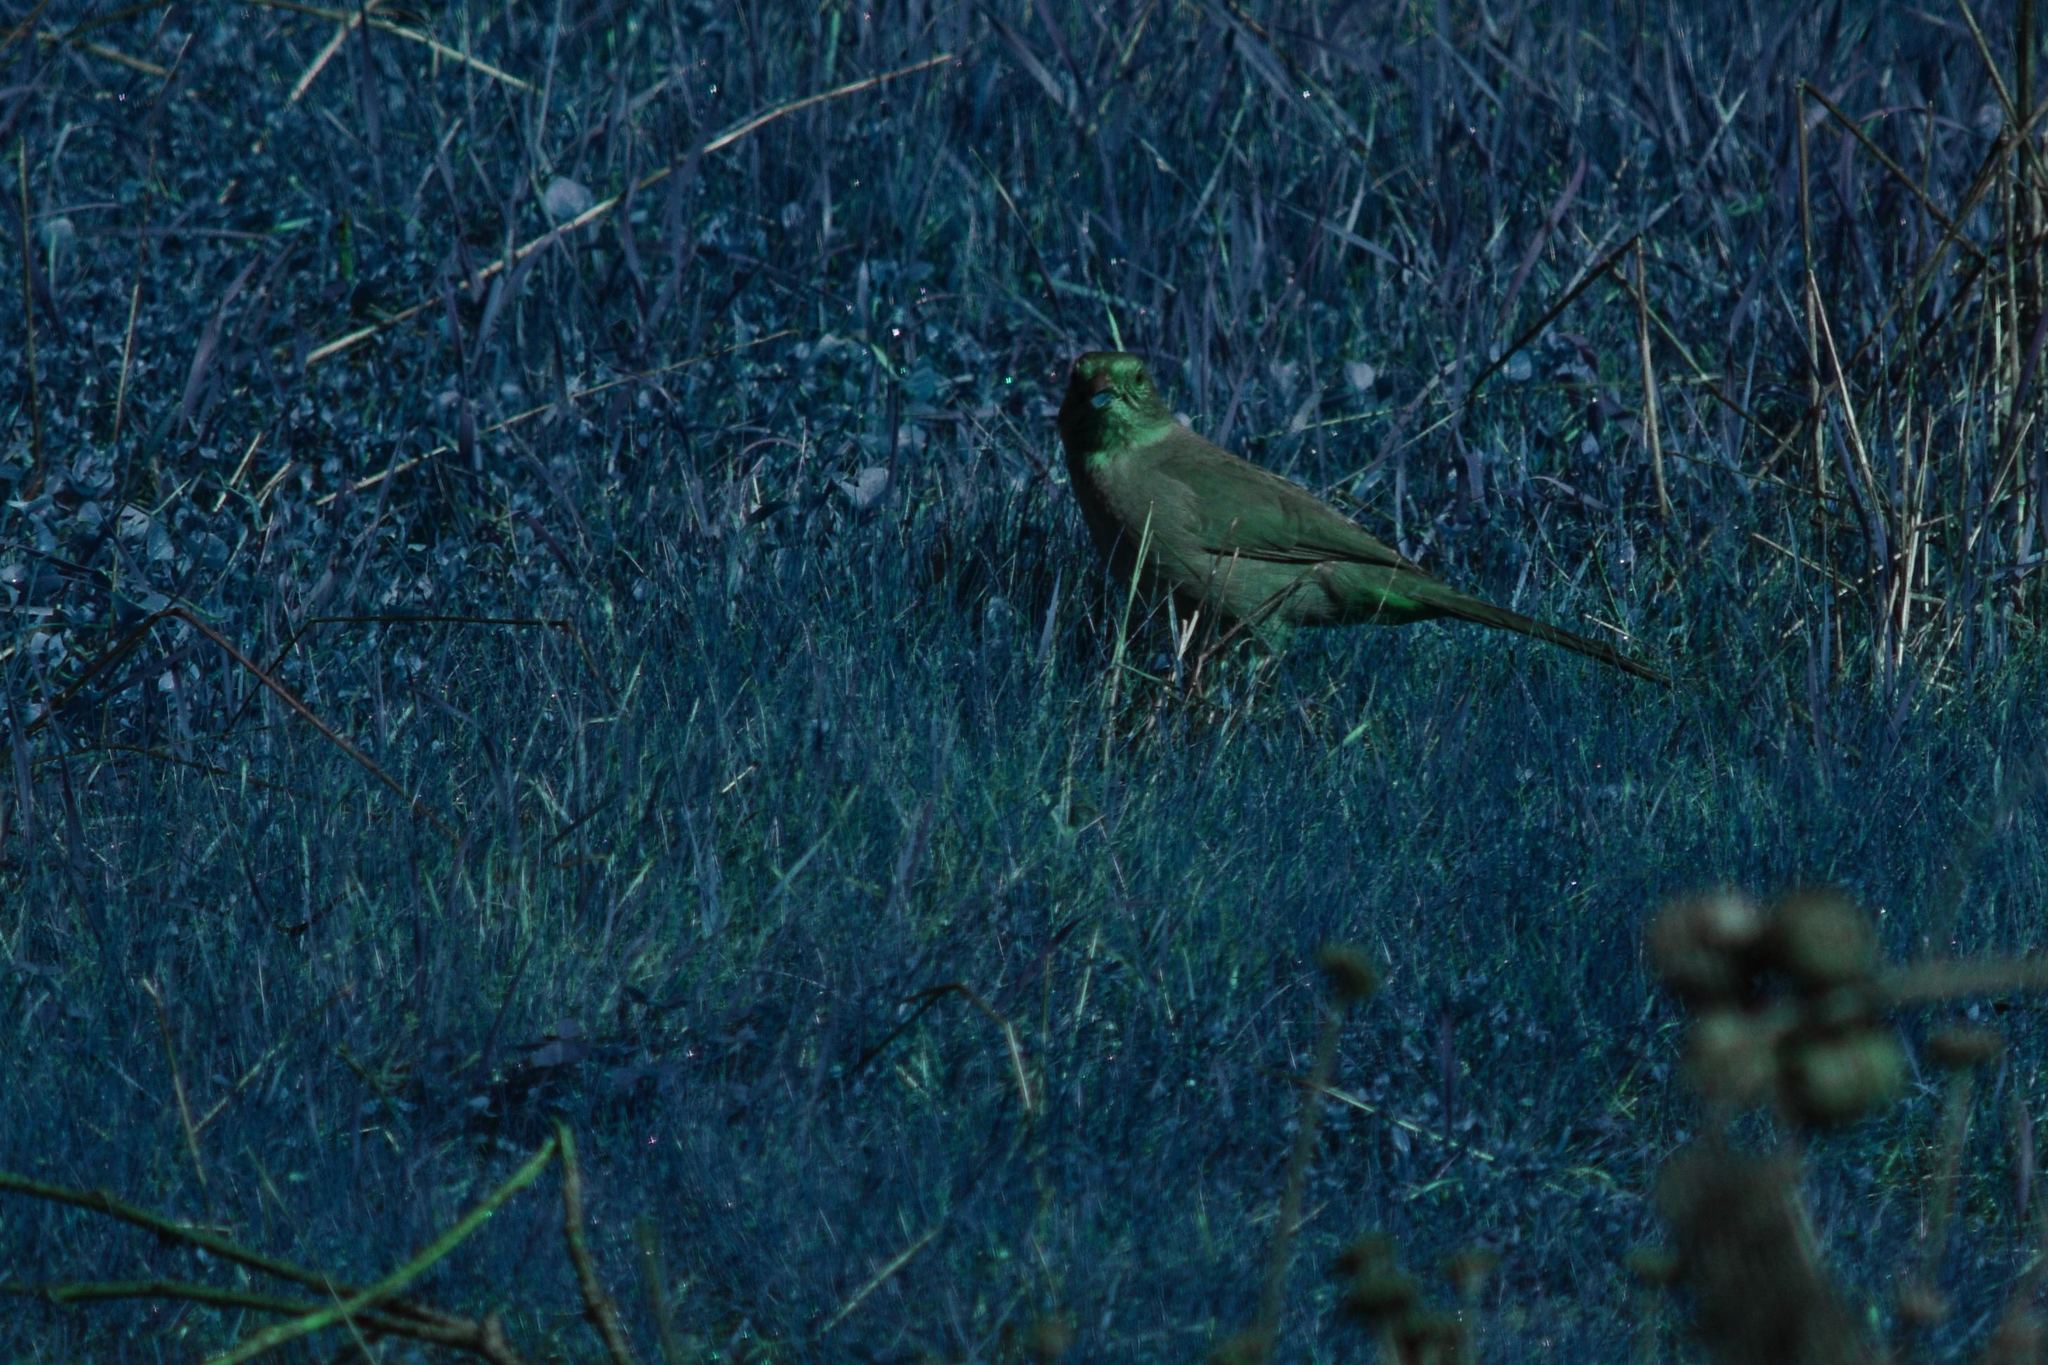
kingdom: Animalia
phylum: Chordata
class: Aves
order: Passeriformes
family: Passerellidae
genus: Melozone
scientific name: Melozone crissalis
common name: California towhee
